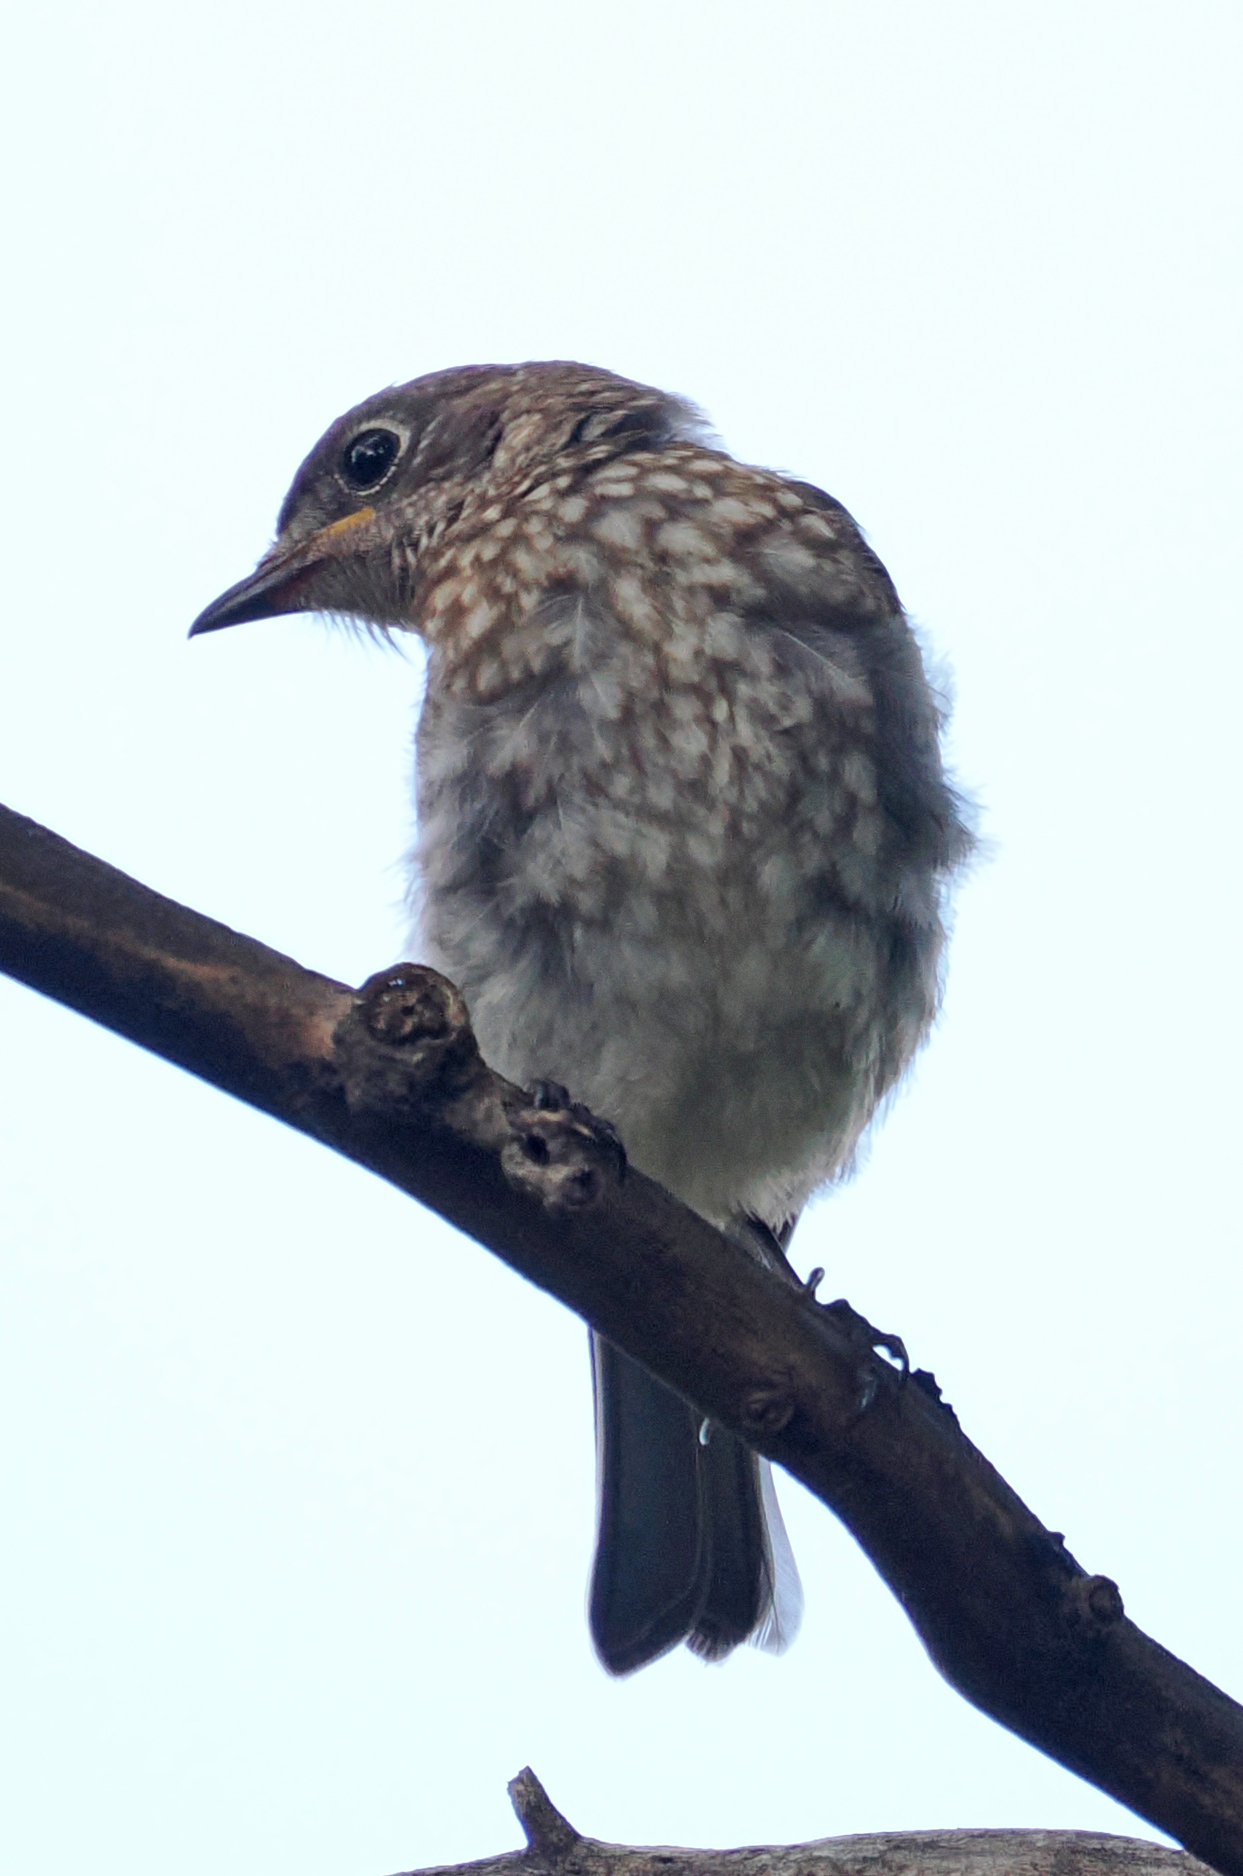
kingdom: Animalia
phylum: Chordata
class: Aves
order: Passeriformes
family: Turdidae
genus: Sialia
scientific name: Sialia sialis
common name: Eastern bluebird
